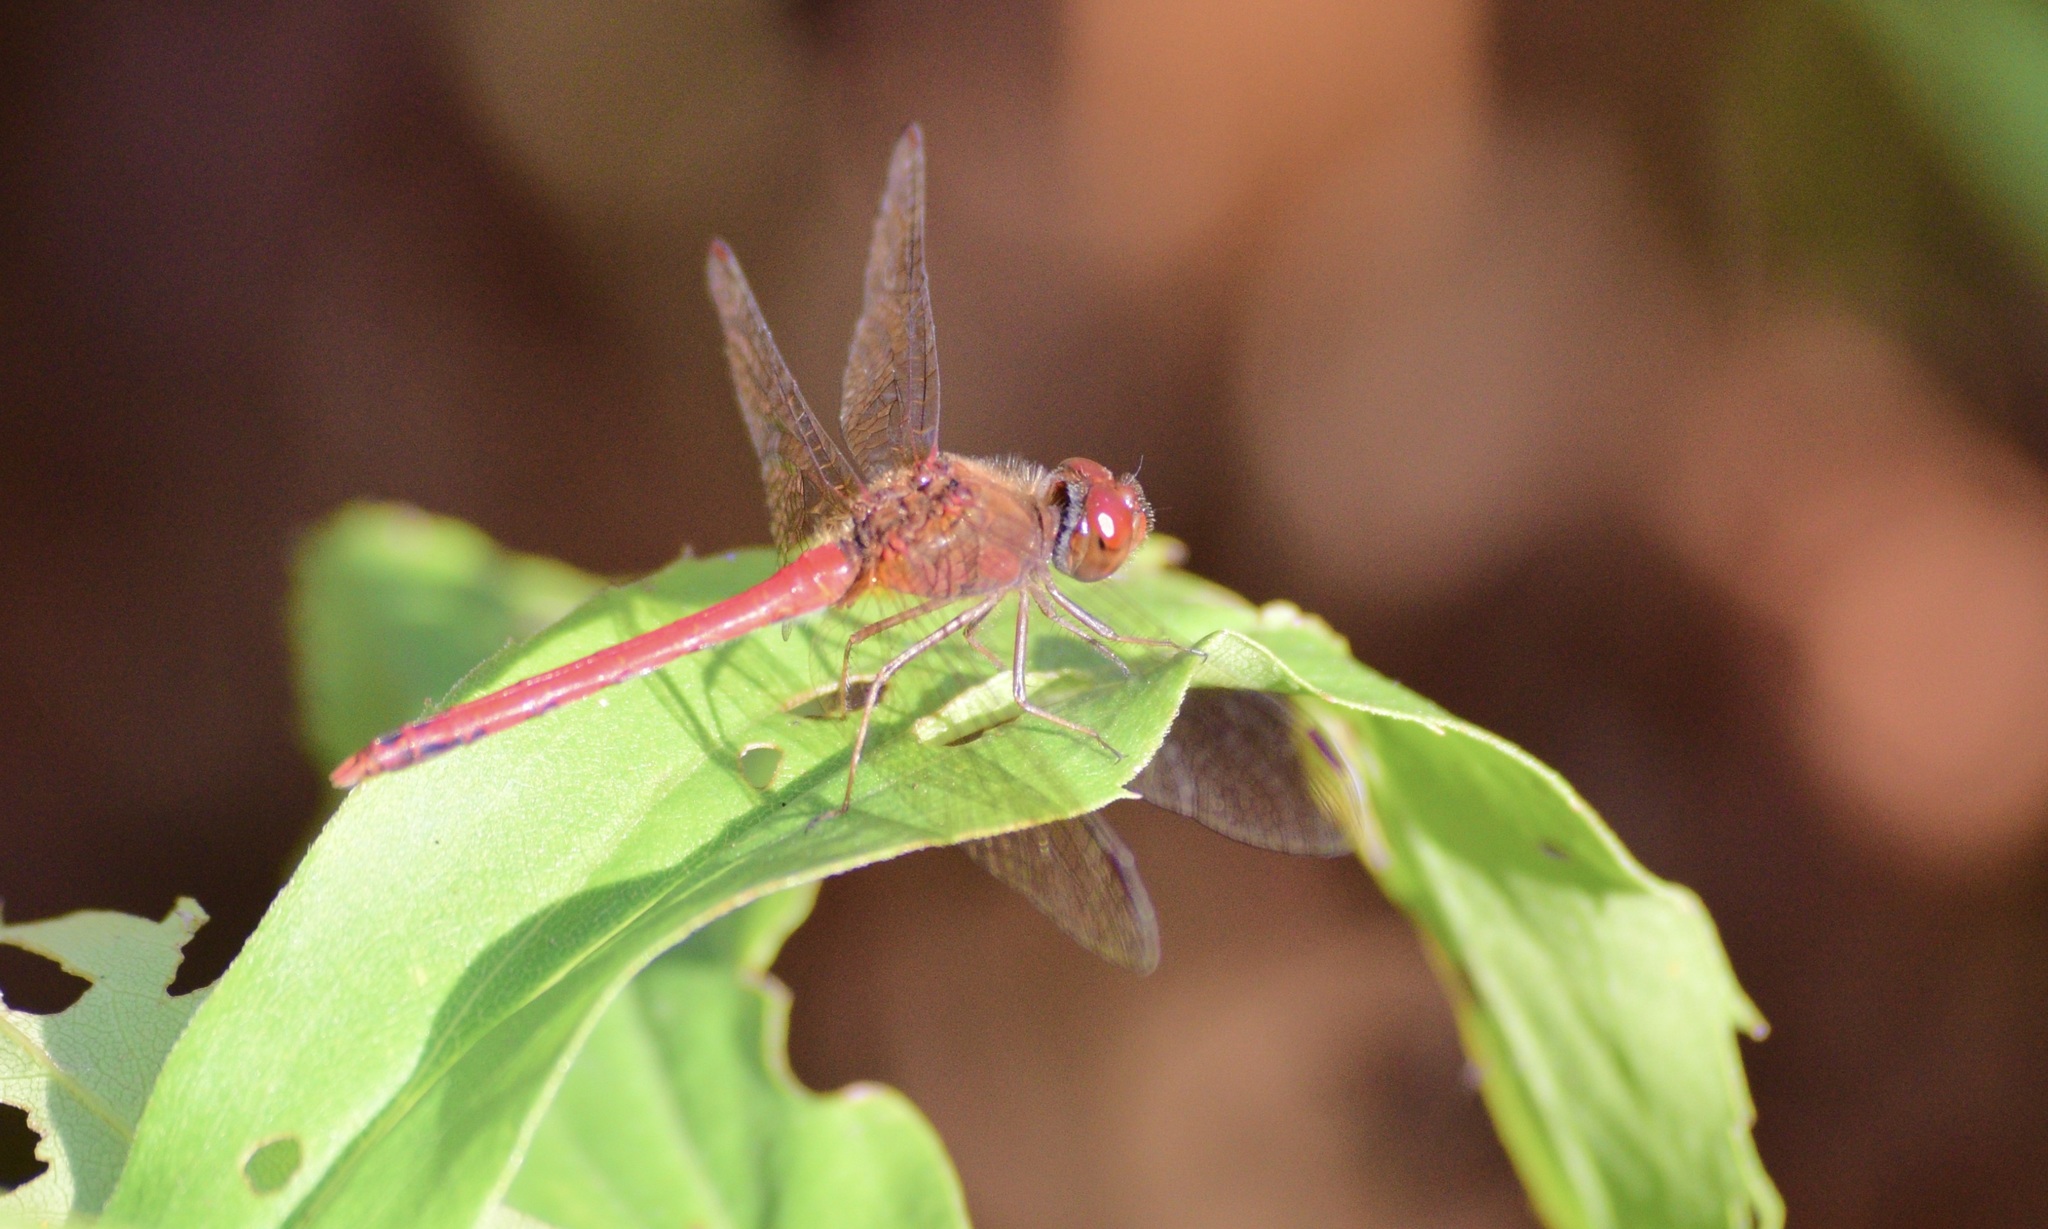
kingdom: Animalia
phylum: Arthropoda
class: Insecta
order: Odonata
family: Libellulidae
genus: Sympetrum
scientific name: Sympetrum vicinum
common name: Autumn meadowhawk
